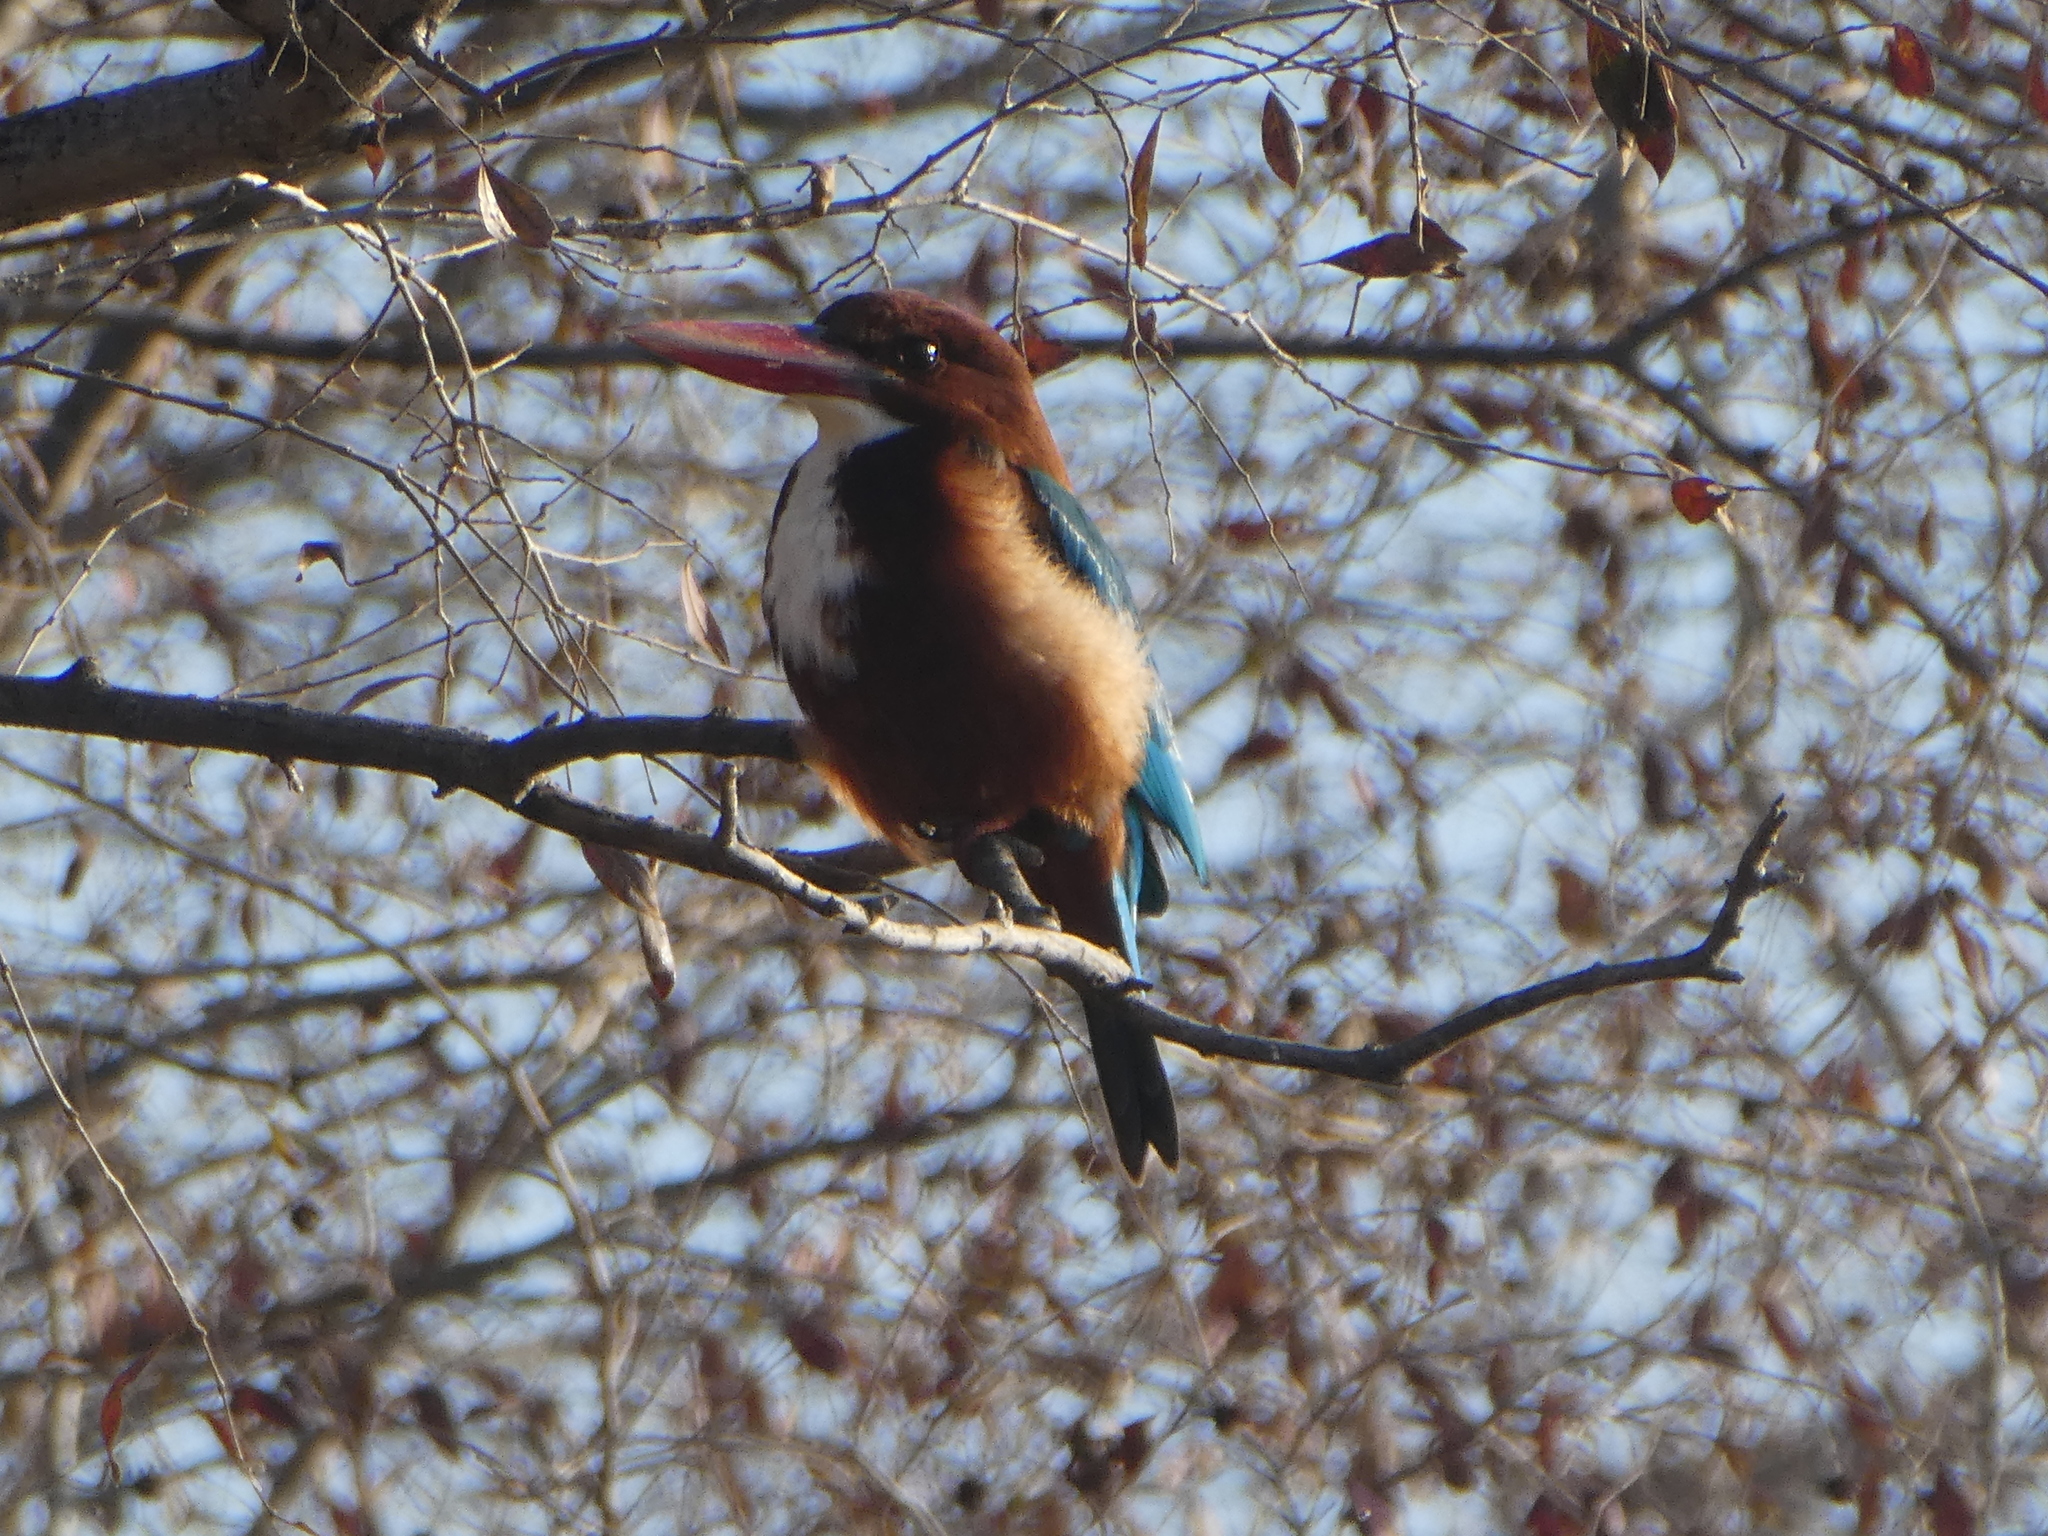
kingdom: Animalia
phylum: Chordata
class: Aves
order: Coraciiformes
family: Alcedinidae
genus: Halcyon
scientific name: Halcyon smyrnensis
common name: White-throated kingfisher
